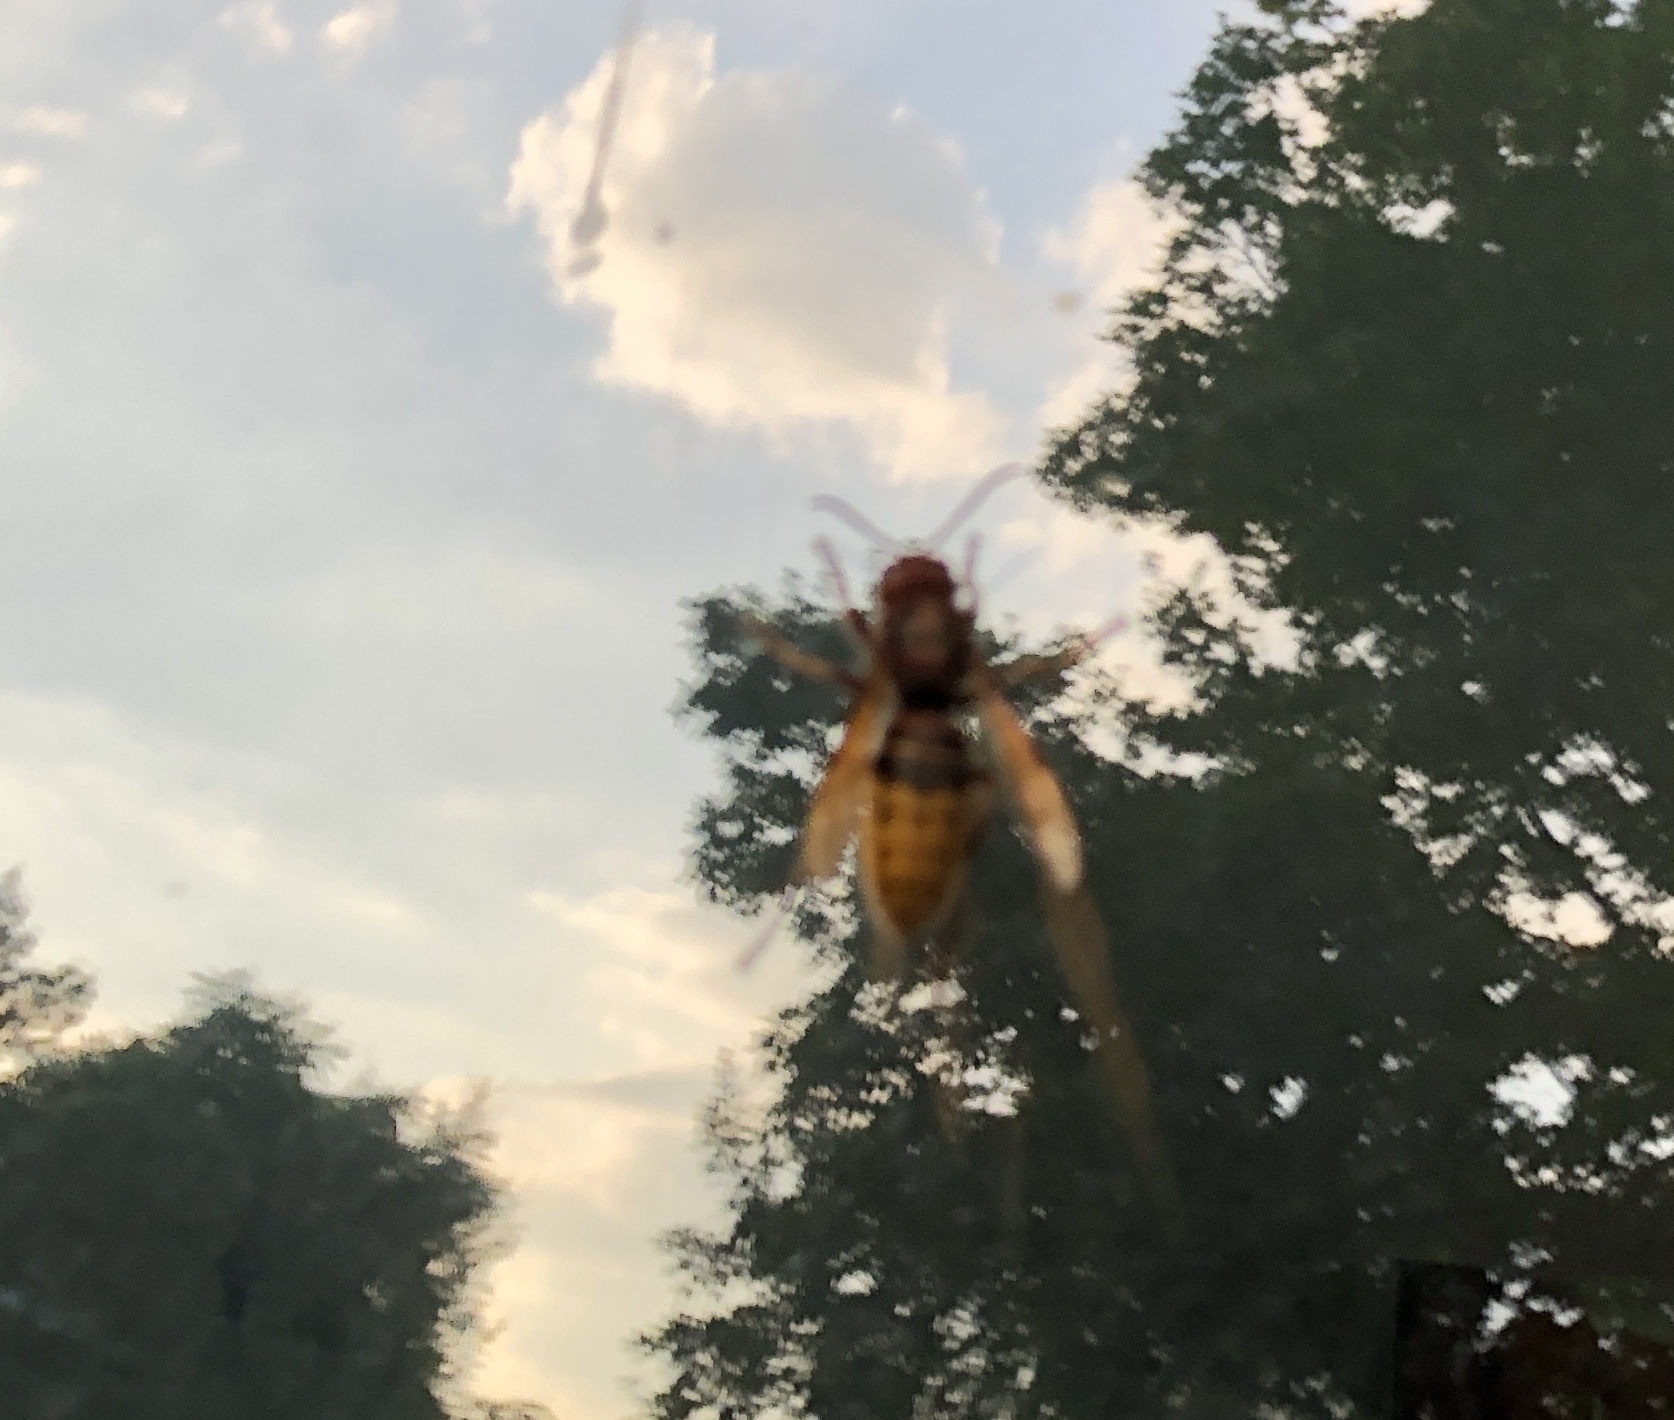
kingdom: Animalia
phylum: Arthropoda
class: Insecta
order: Hymenoptera
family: Vespidae
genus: Vespa
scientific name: Vespa crabro
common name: Hornet
